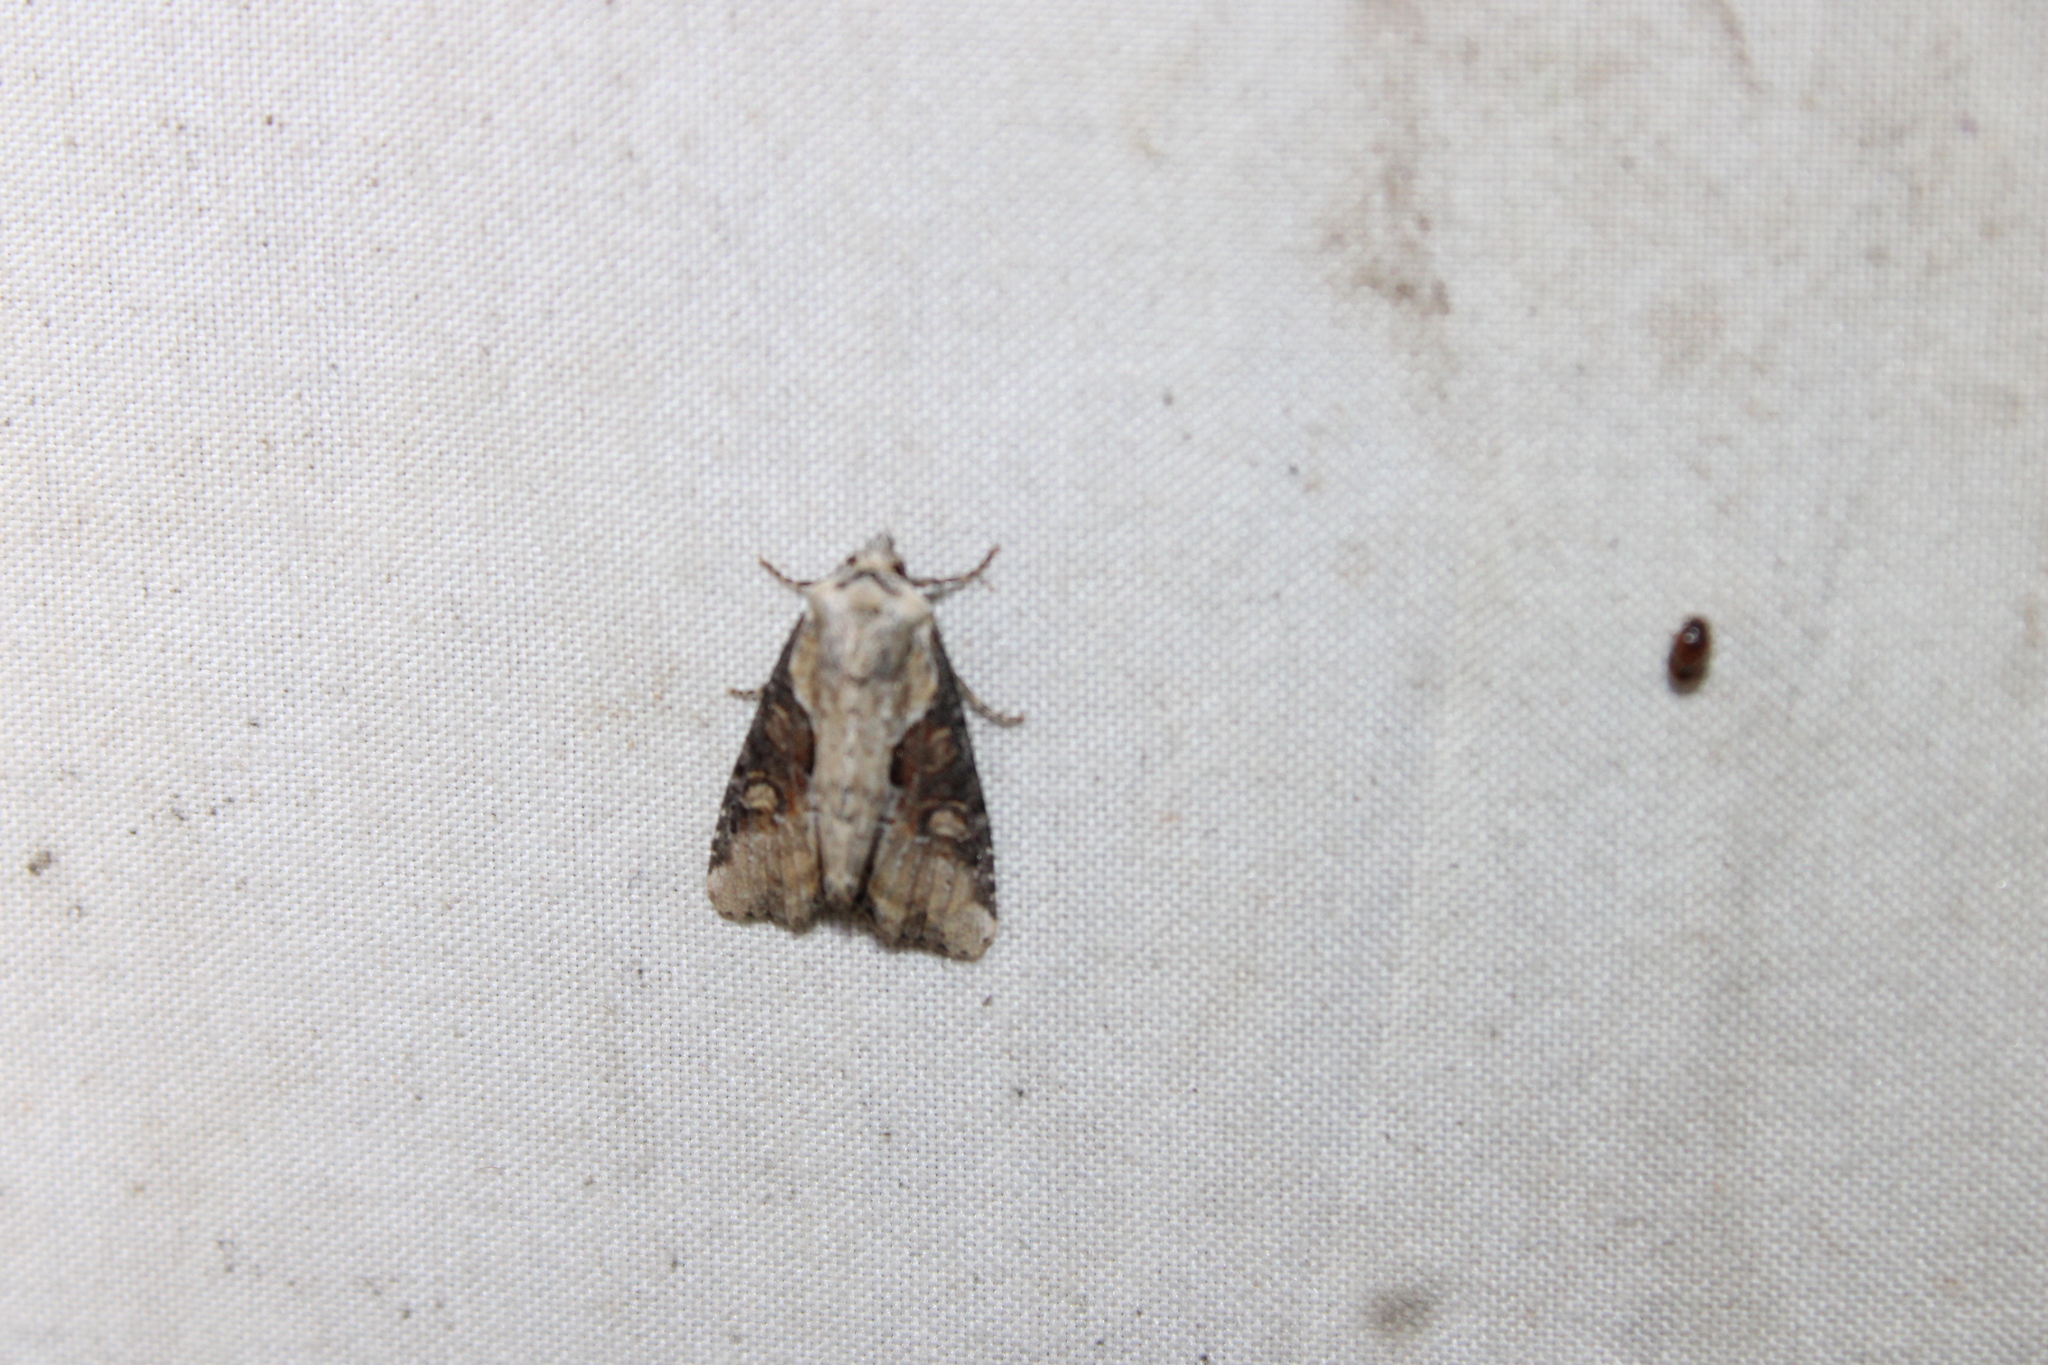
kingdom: Animalia
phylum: Arthropoda
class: Insecta
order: Lepidoptera
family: Noctuidae
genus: Lateroligia
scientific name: Lateroligia ophiogramma
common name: Double lobed
